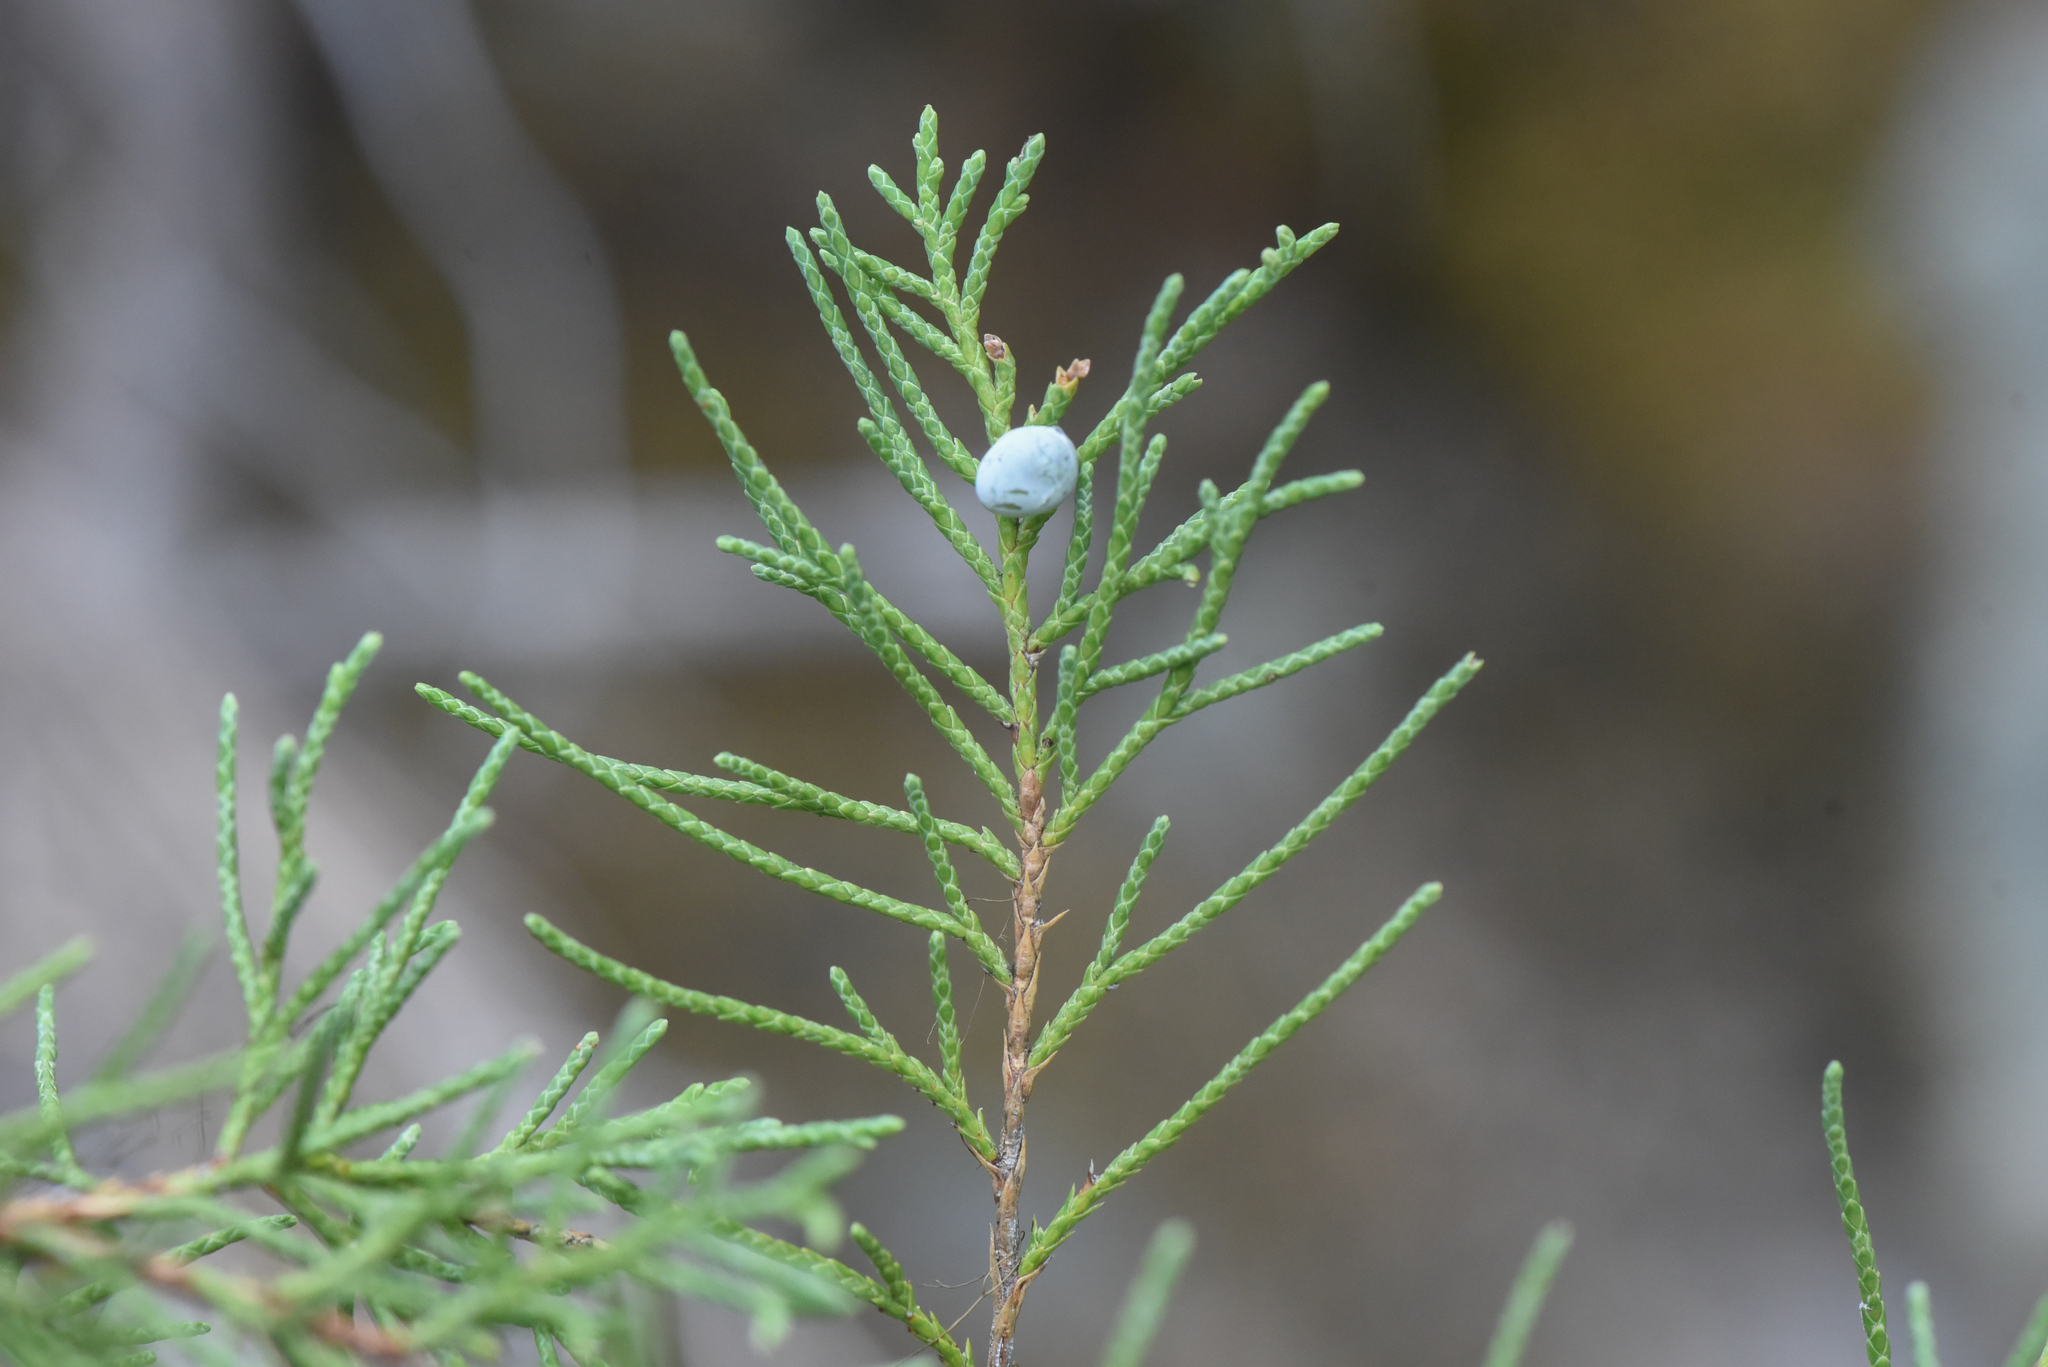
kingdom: Plantae
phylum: Tracheophyta
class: Pinopsida
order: Pinales
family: Cupressaceae
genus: Juniperus
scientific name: Juniperus scopulorum
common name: Rocky mountain juniper
